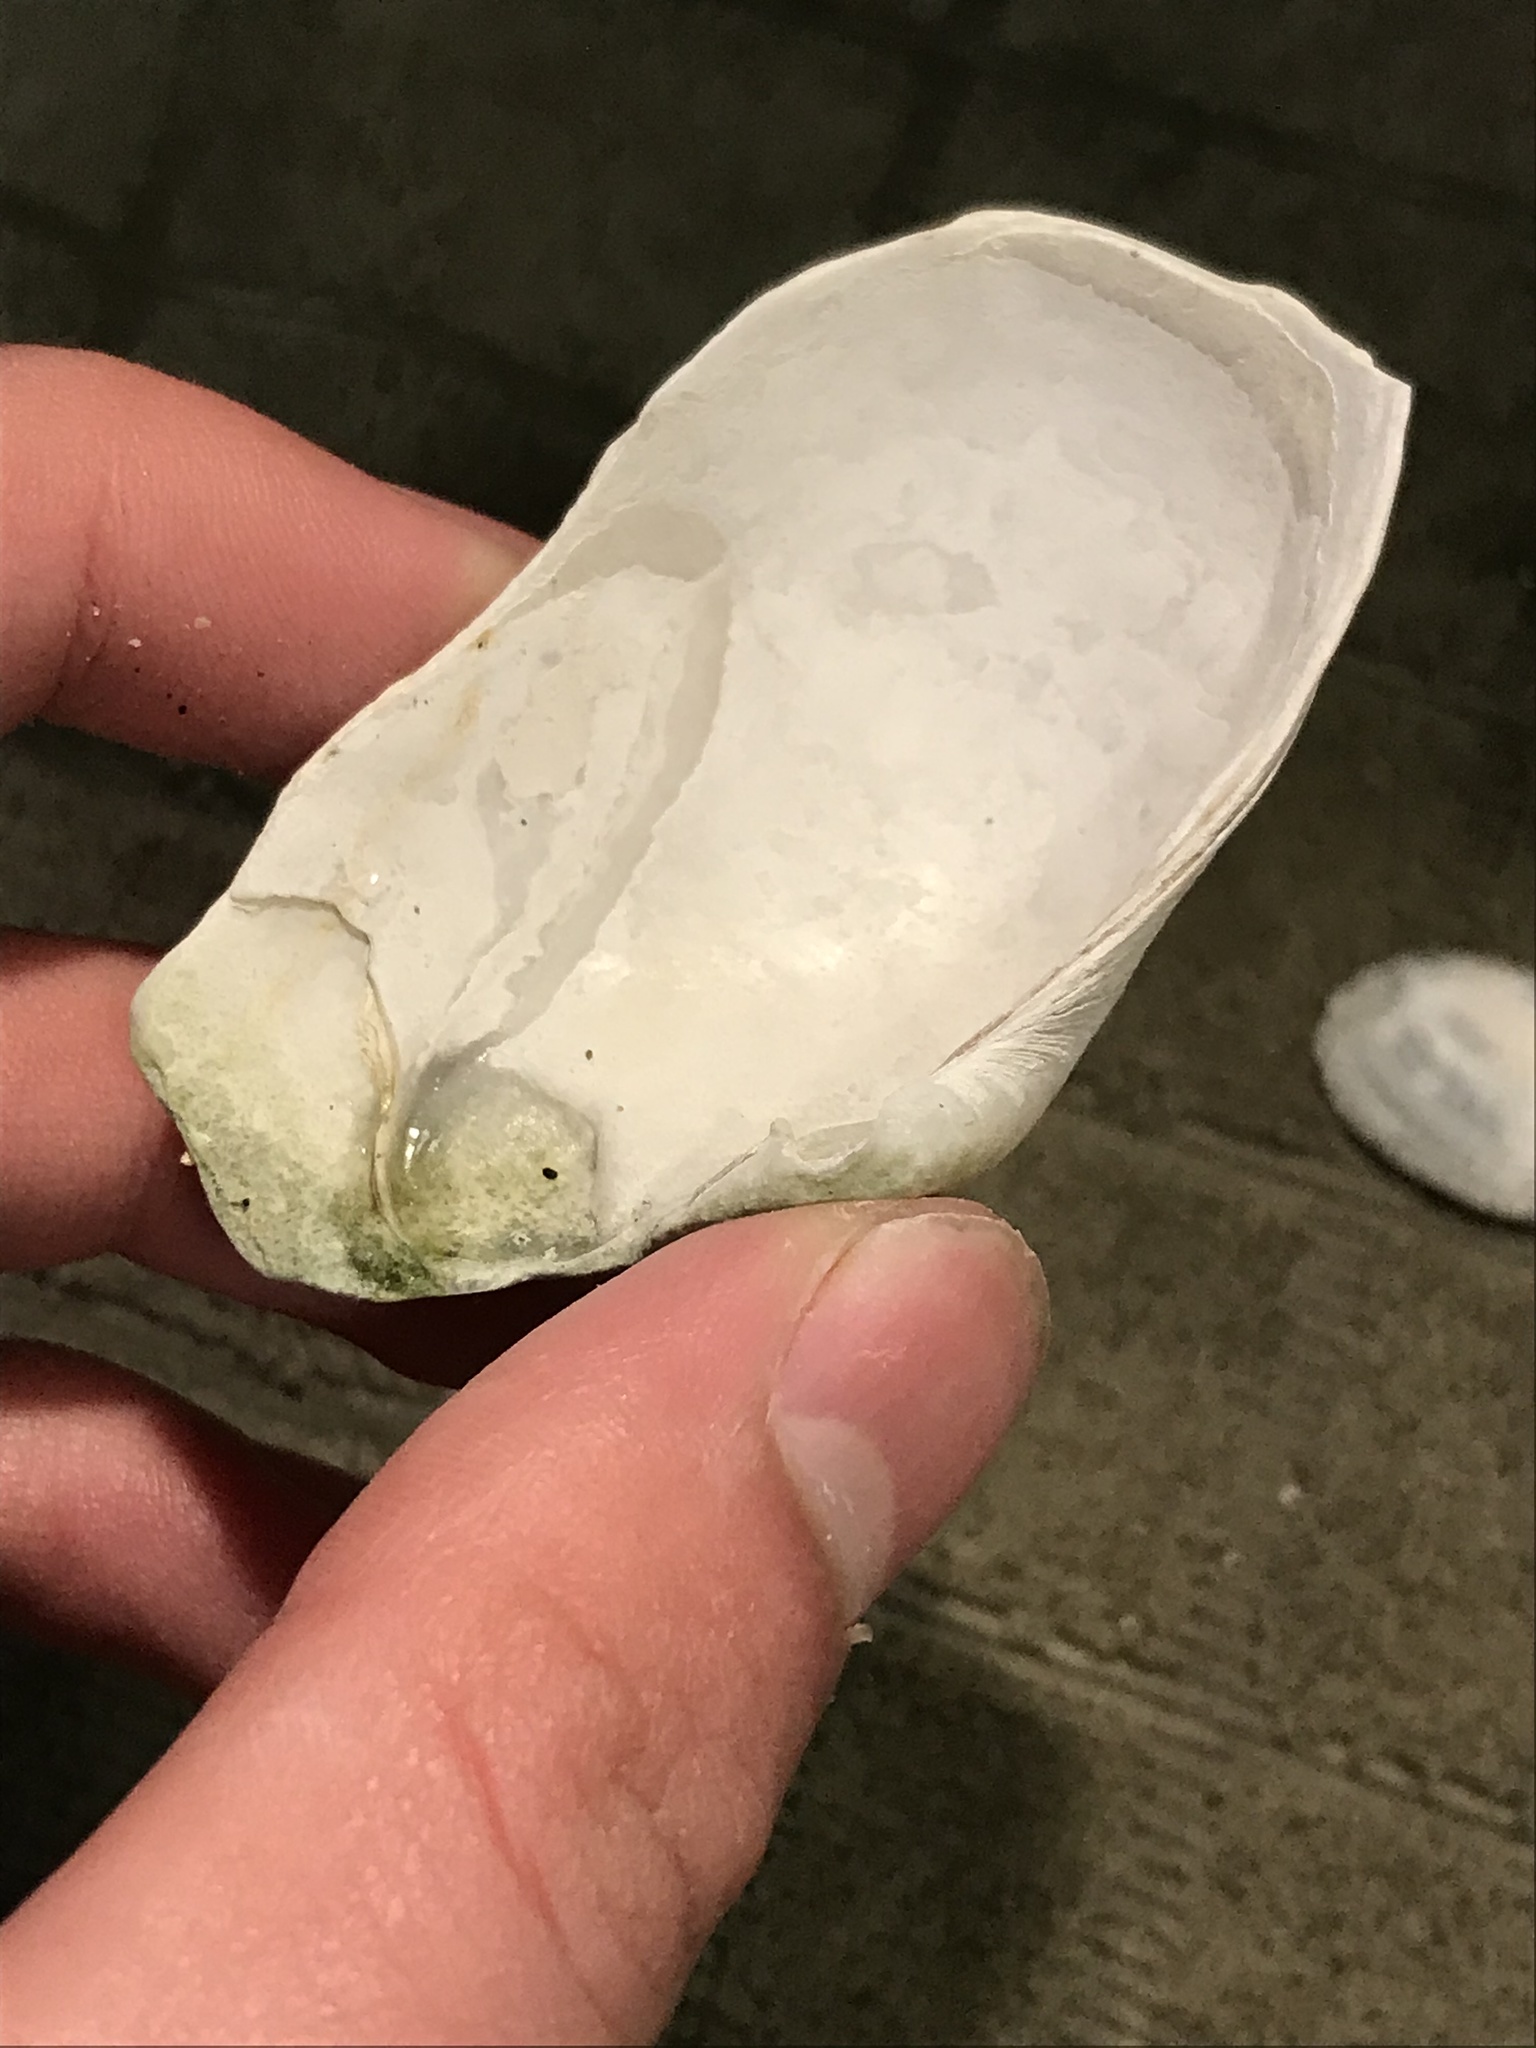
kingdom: Animalia
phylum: Mollusca
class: Bivalvia
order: Myida
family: Myidae
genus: Platyodon
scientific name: Platyodon cancellatus
